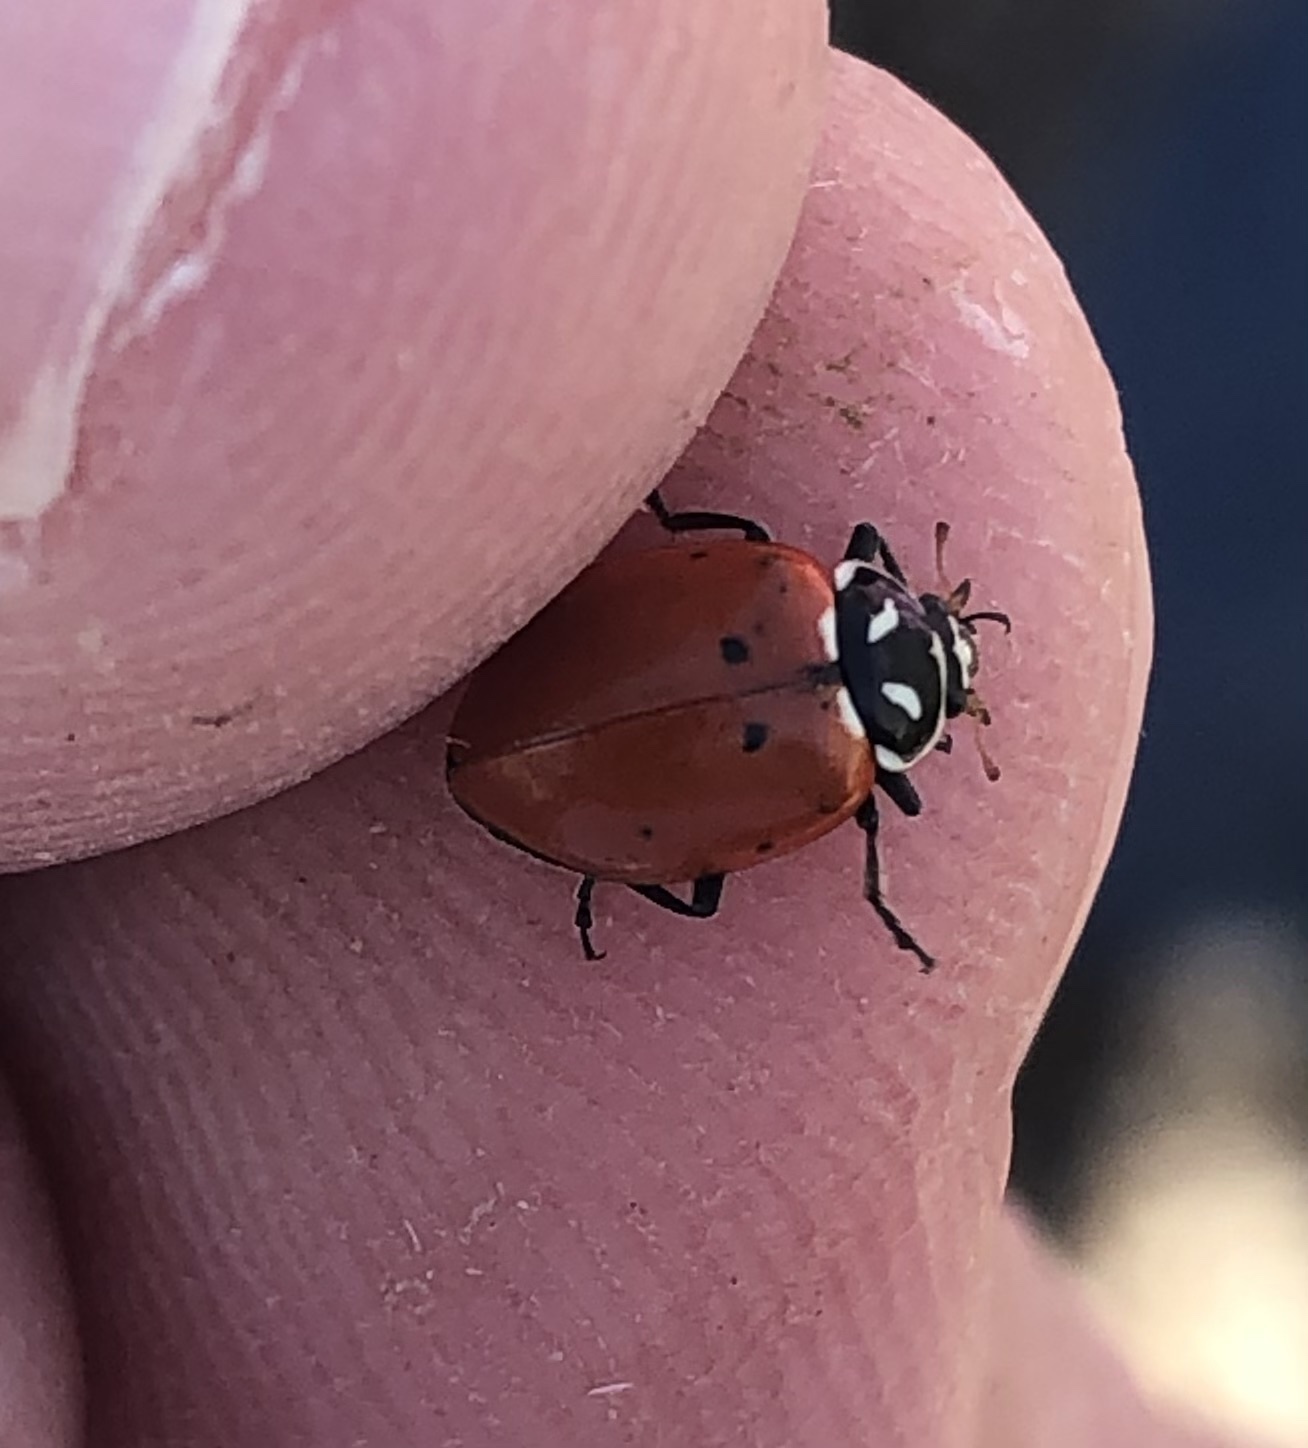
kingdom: Animalia
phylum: Arthropoda
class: Insecta
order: Coleoptera
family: Coccinellidae
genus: Hippodamia
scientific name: Hippodamia convergens
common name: Convergent lady beetle
